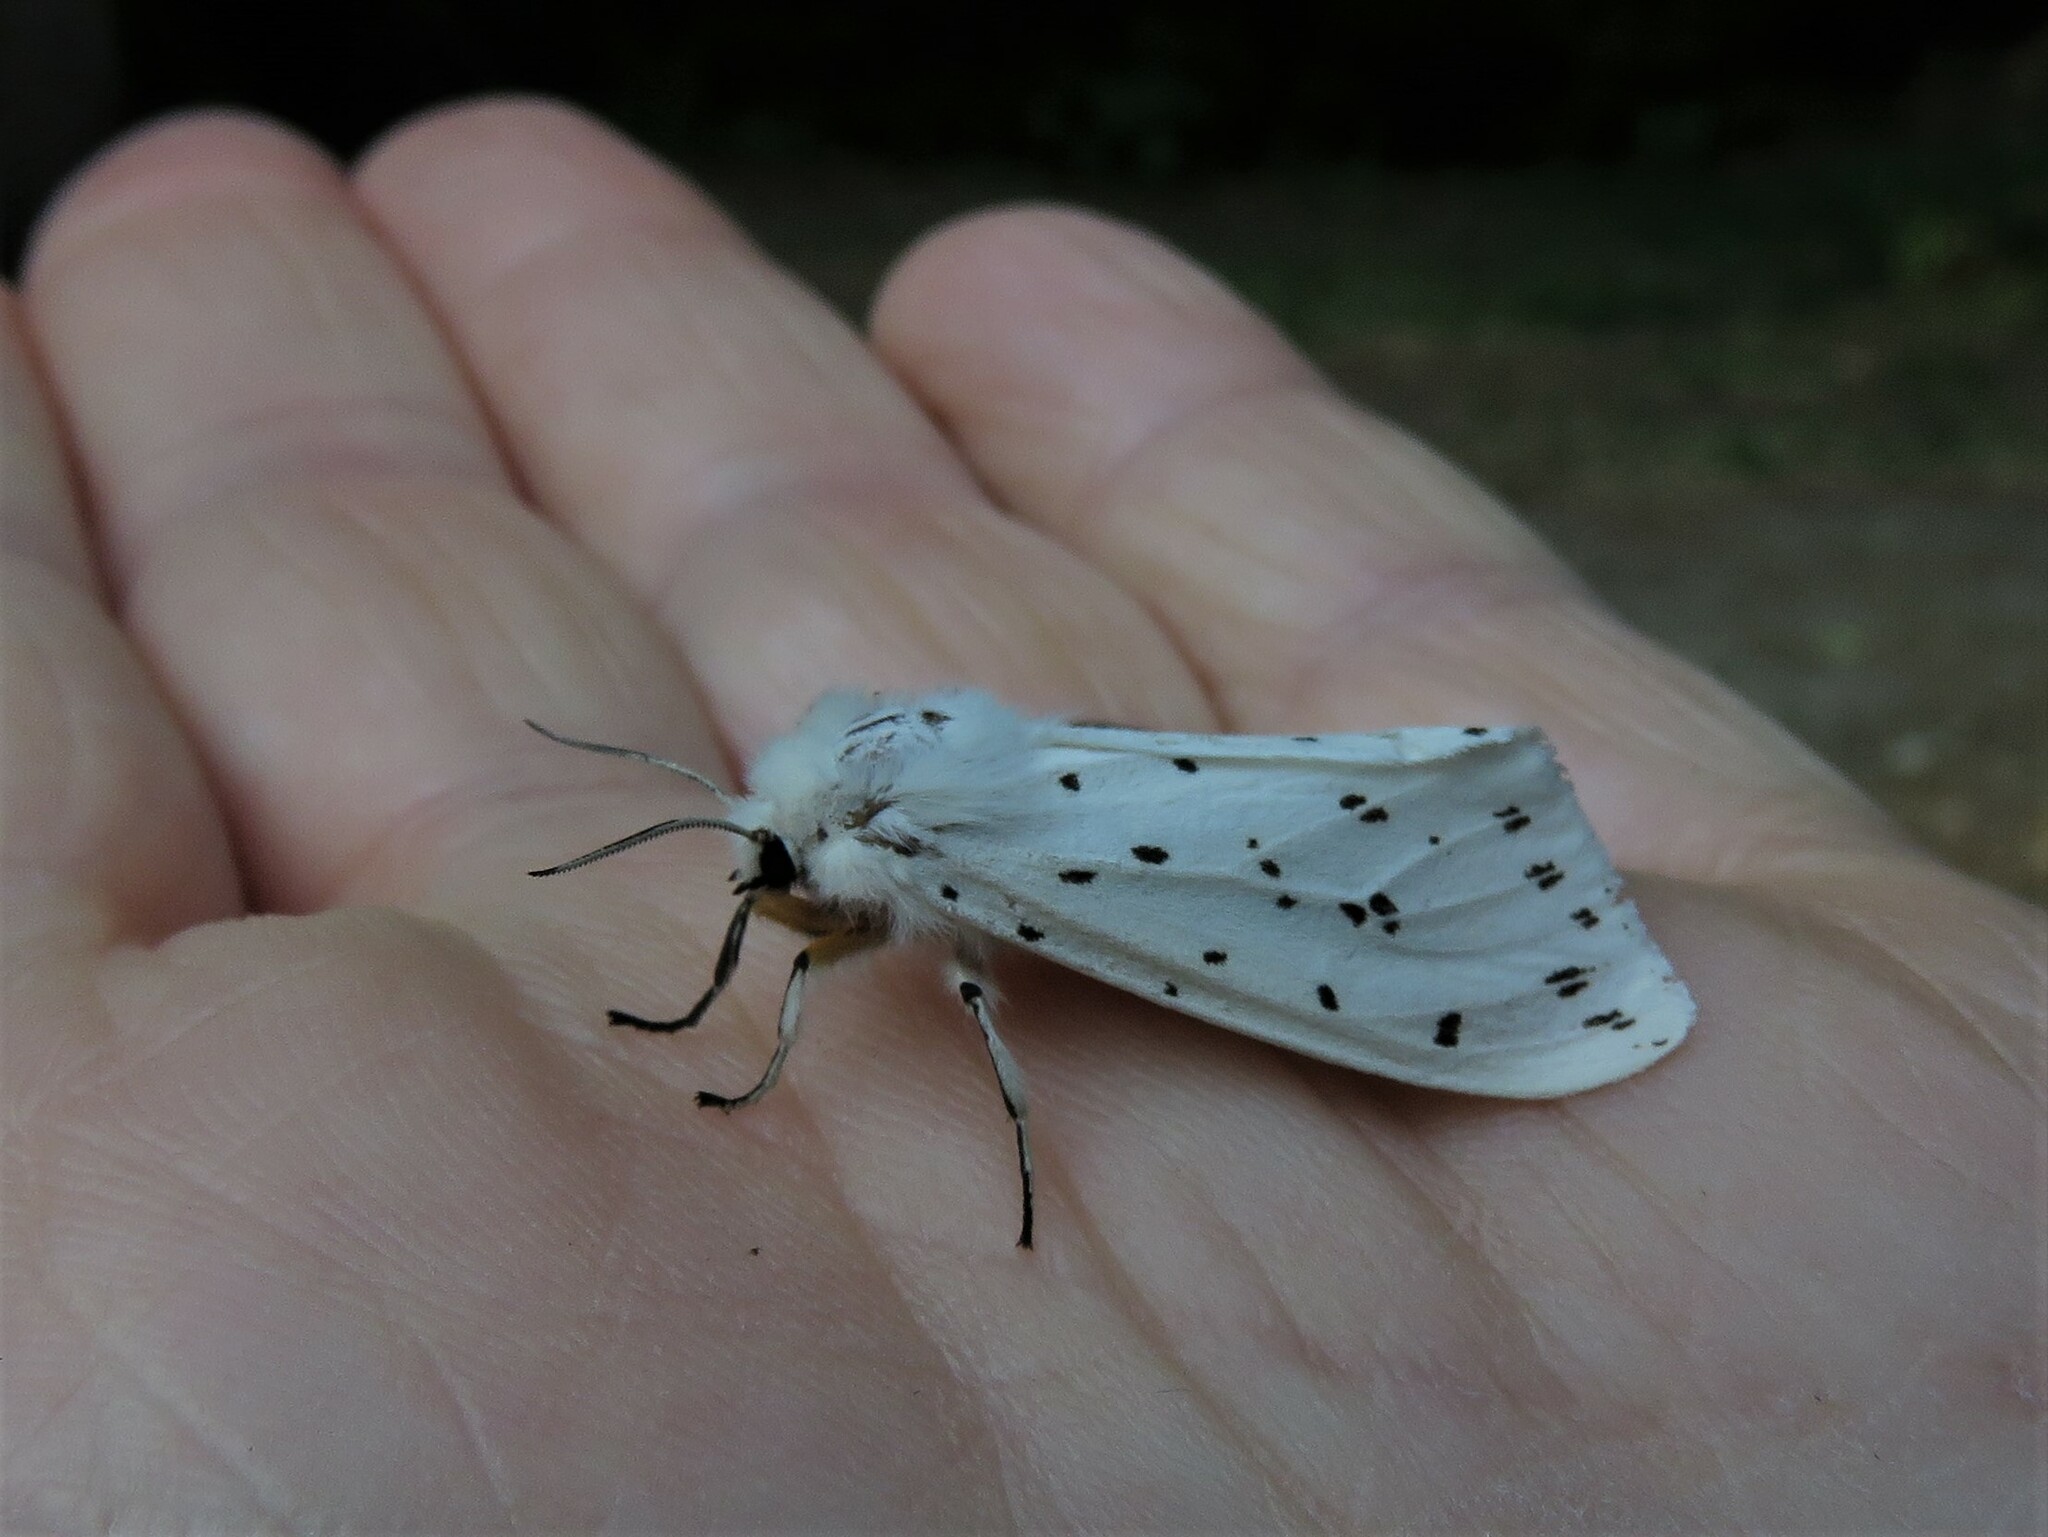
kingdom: Animalia
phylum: Arthropoda
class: Insecta
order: Lepidoptera
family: Erebidae
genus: Spilosoma
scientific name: Spilosoma lubricipeda
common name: White ermine
